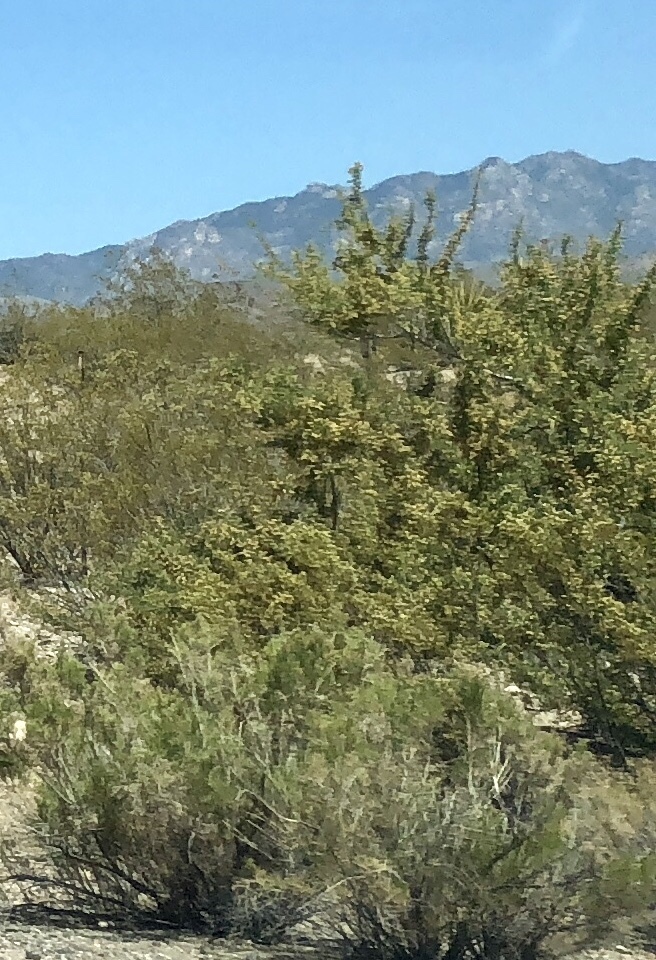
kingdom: Plantae
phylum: Tracheophyta
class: Magnoliopsida
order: Fabales
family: Fabaceae
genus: Senegalia
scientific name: Senegalia greggii
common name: Texas-mimosa
